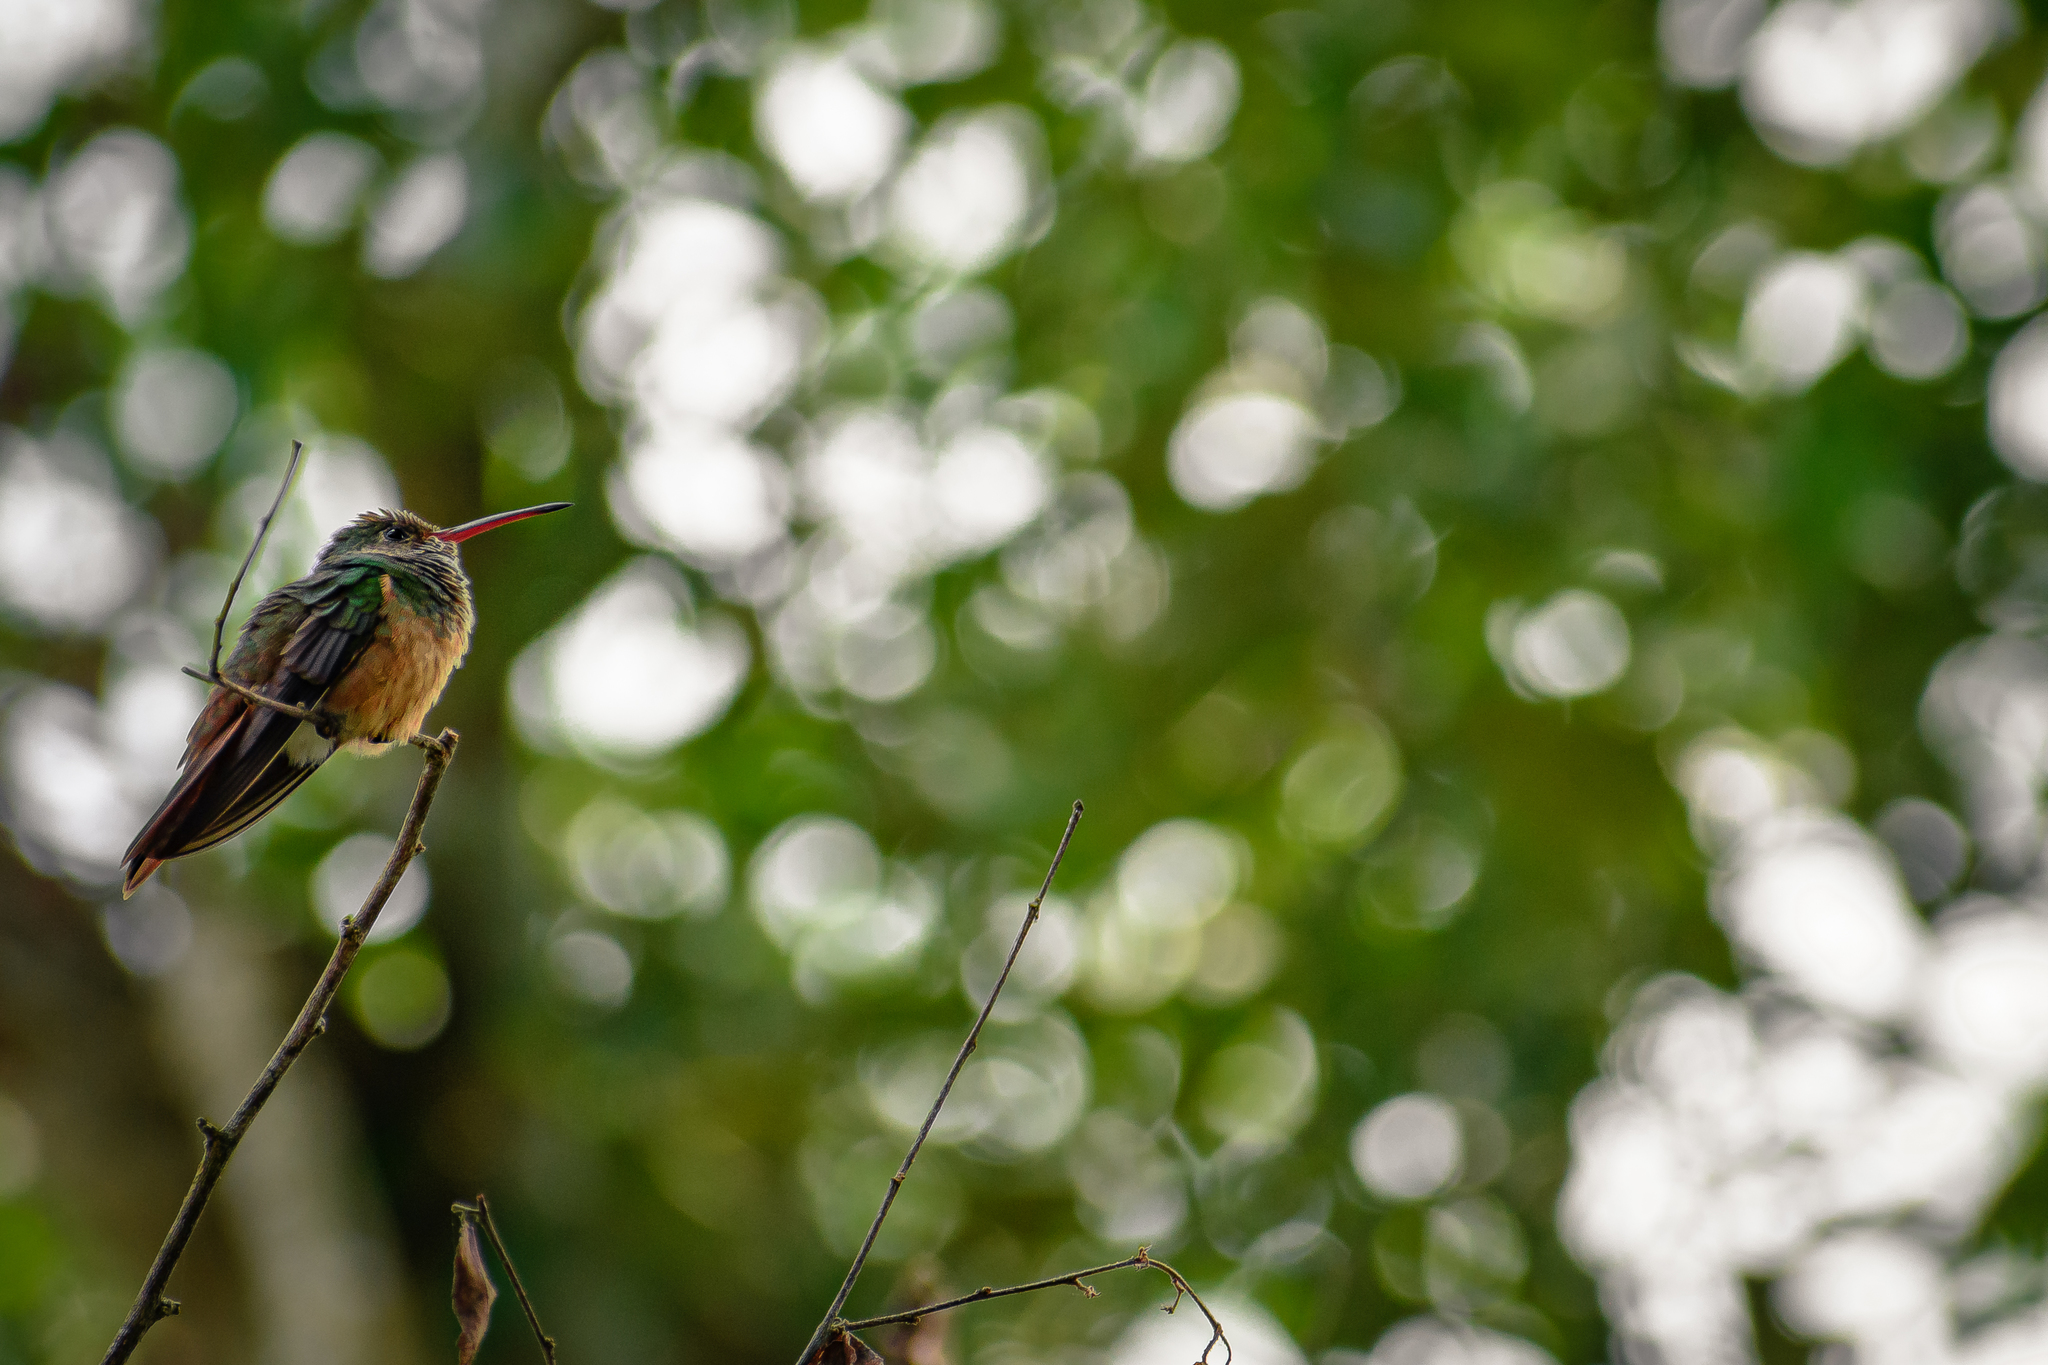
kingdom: Animalia
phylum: Chordata
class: Aves
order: Apodiformes
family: Trochilidae
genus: Amazilia
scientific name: Amazilia yucatanensis
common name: Buff-bellied hummingbird
